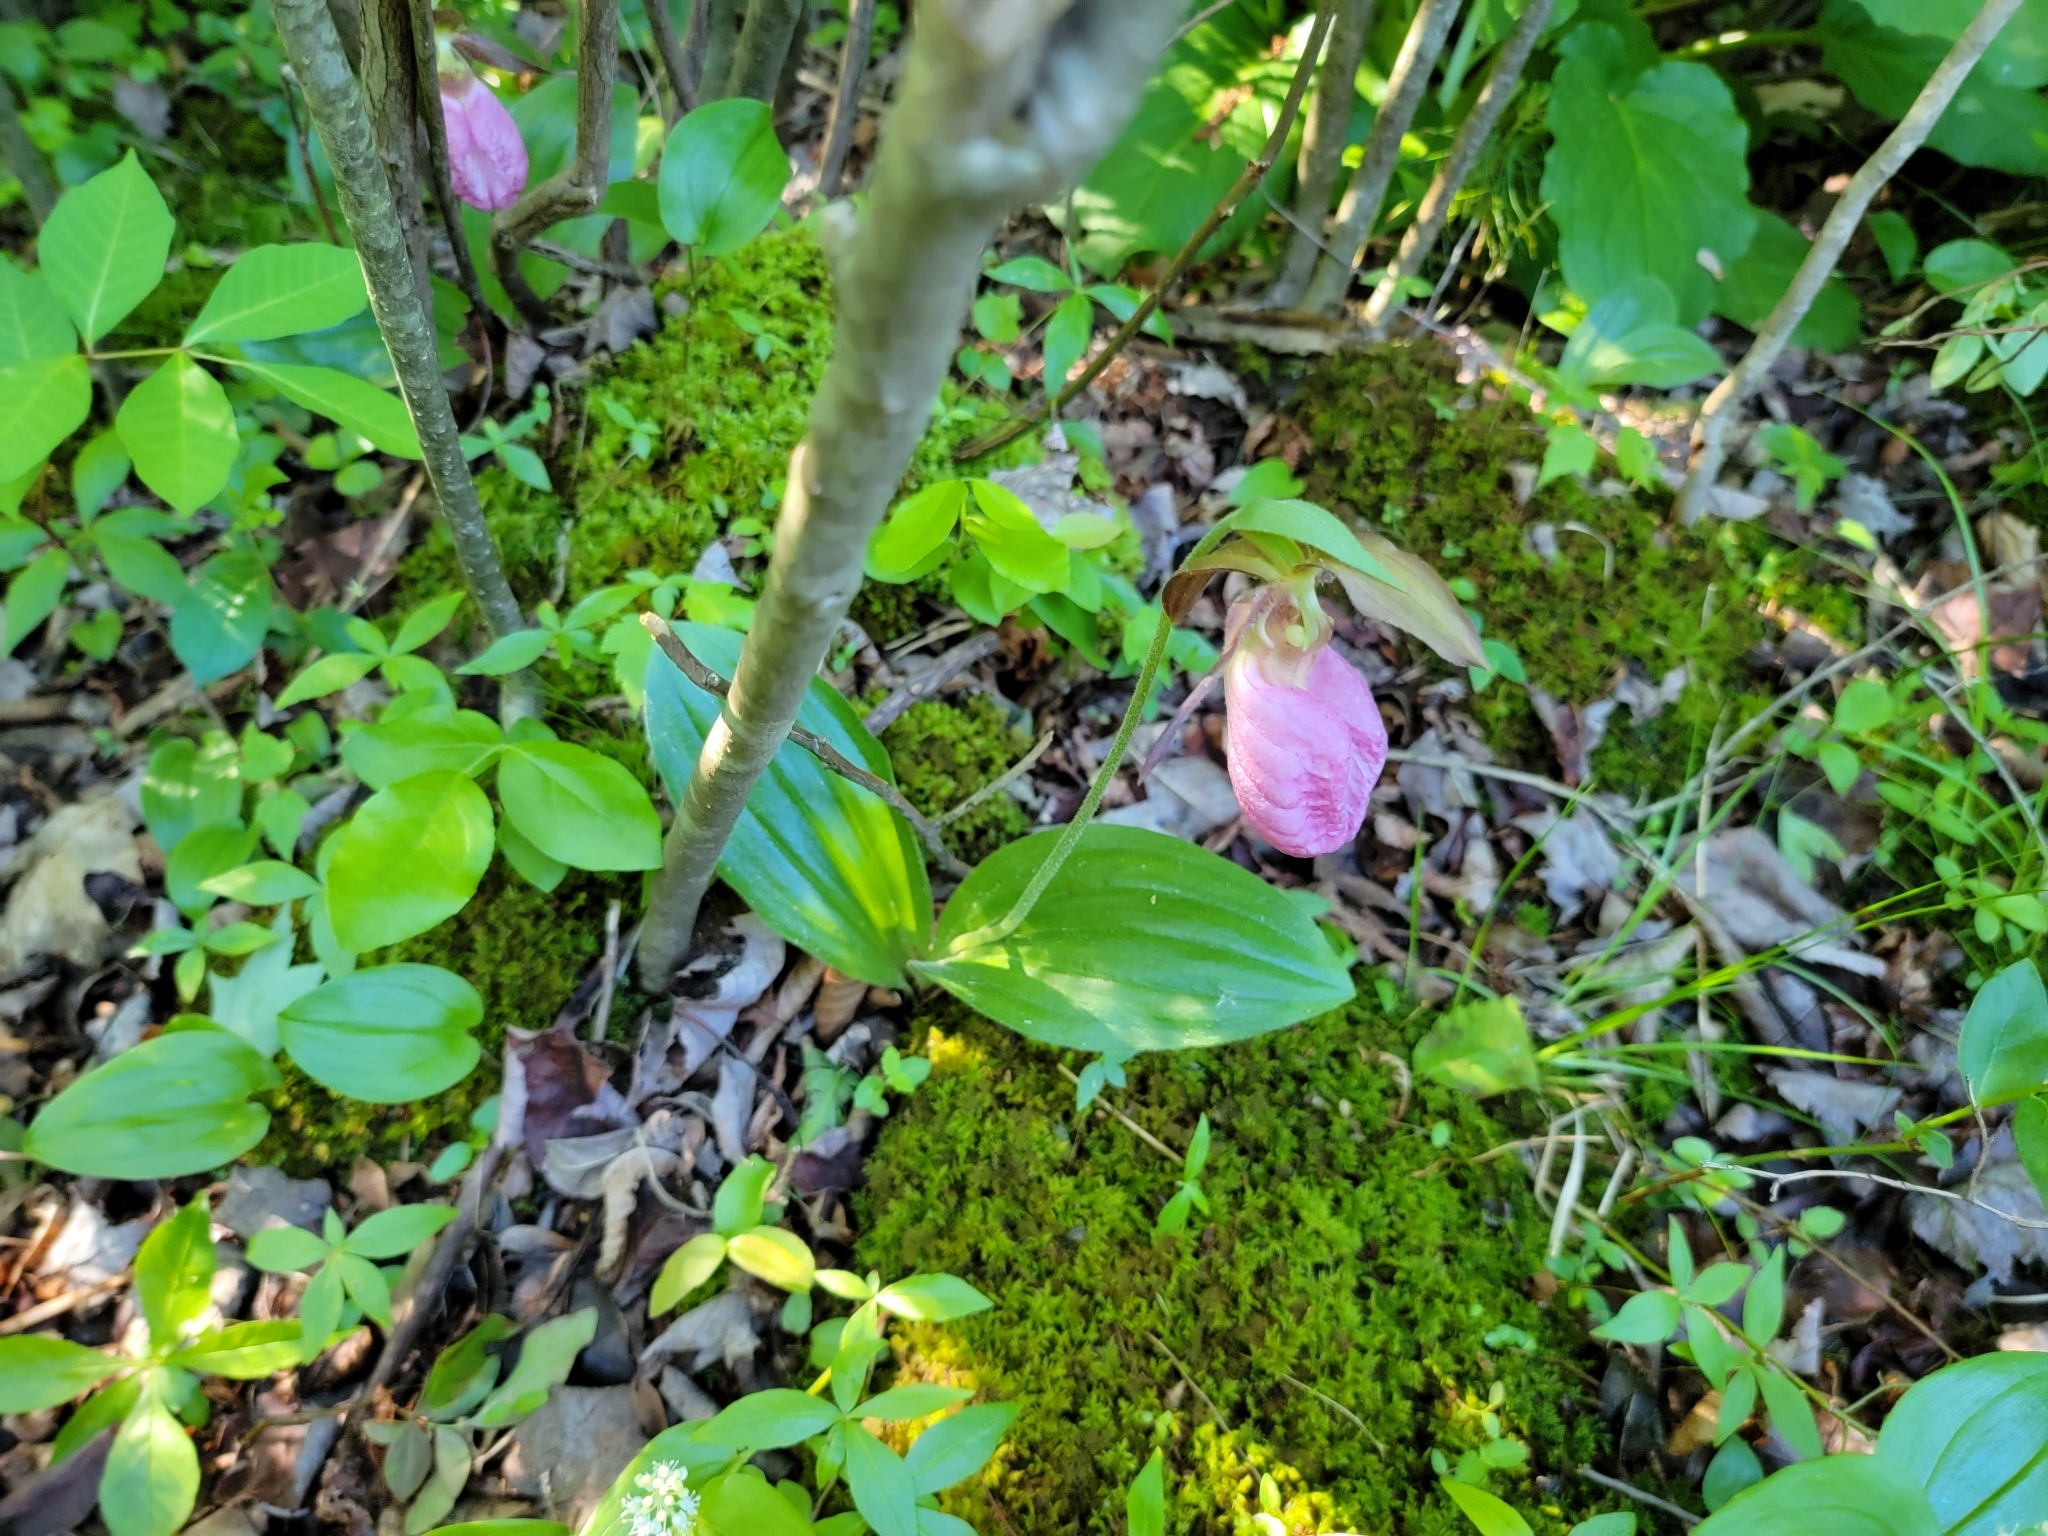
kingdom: Plantae
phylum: Tracheophyta
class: Liliopsida
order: Asparagales
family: Orchidaceae
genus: Cypripedium
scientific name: Cypripedium acaule
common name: Pink lady's-slipper
